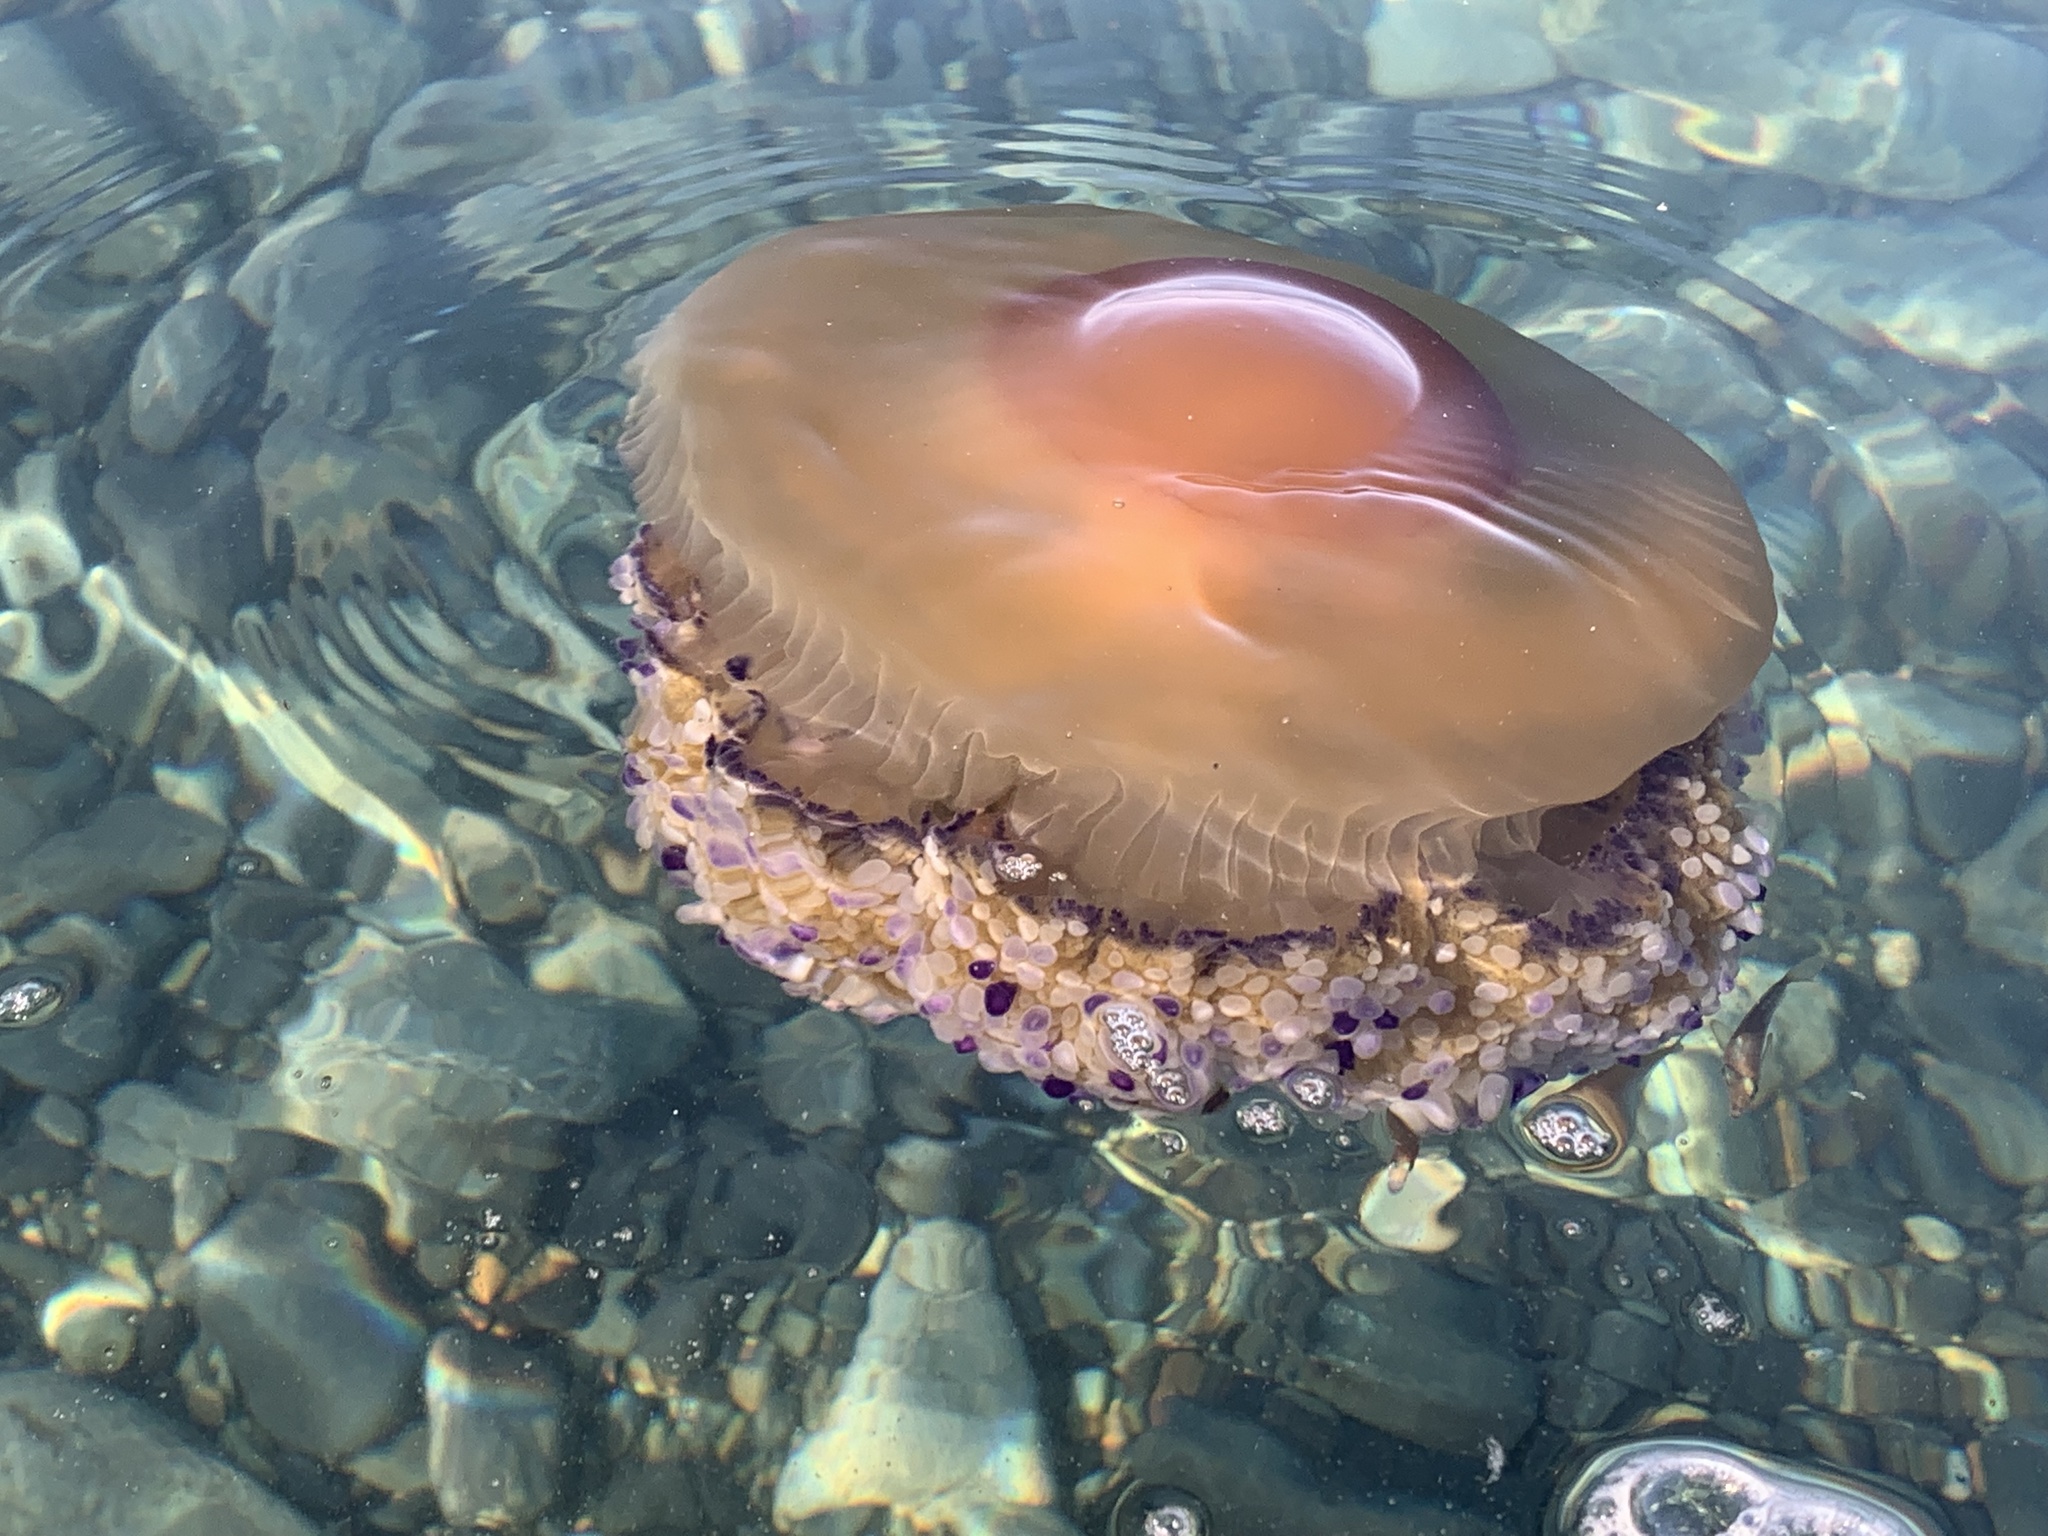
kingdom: Animalia
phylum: Cnidaria
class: Scyphozoa
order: Rhizostomeae
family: Cepheidae
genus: Cotylorhiza
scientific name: Cotylorhiza tuberculata
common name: Mediterranean jelly
